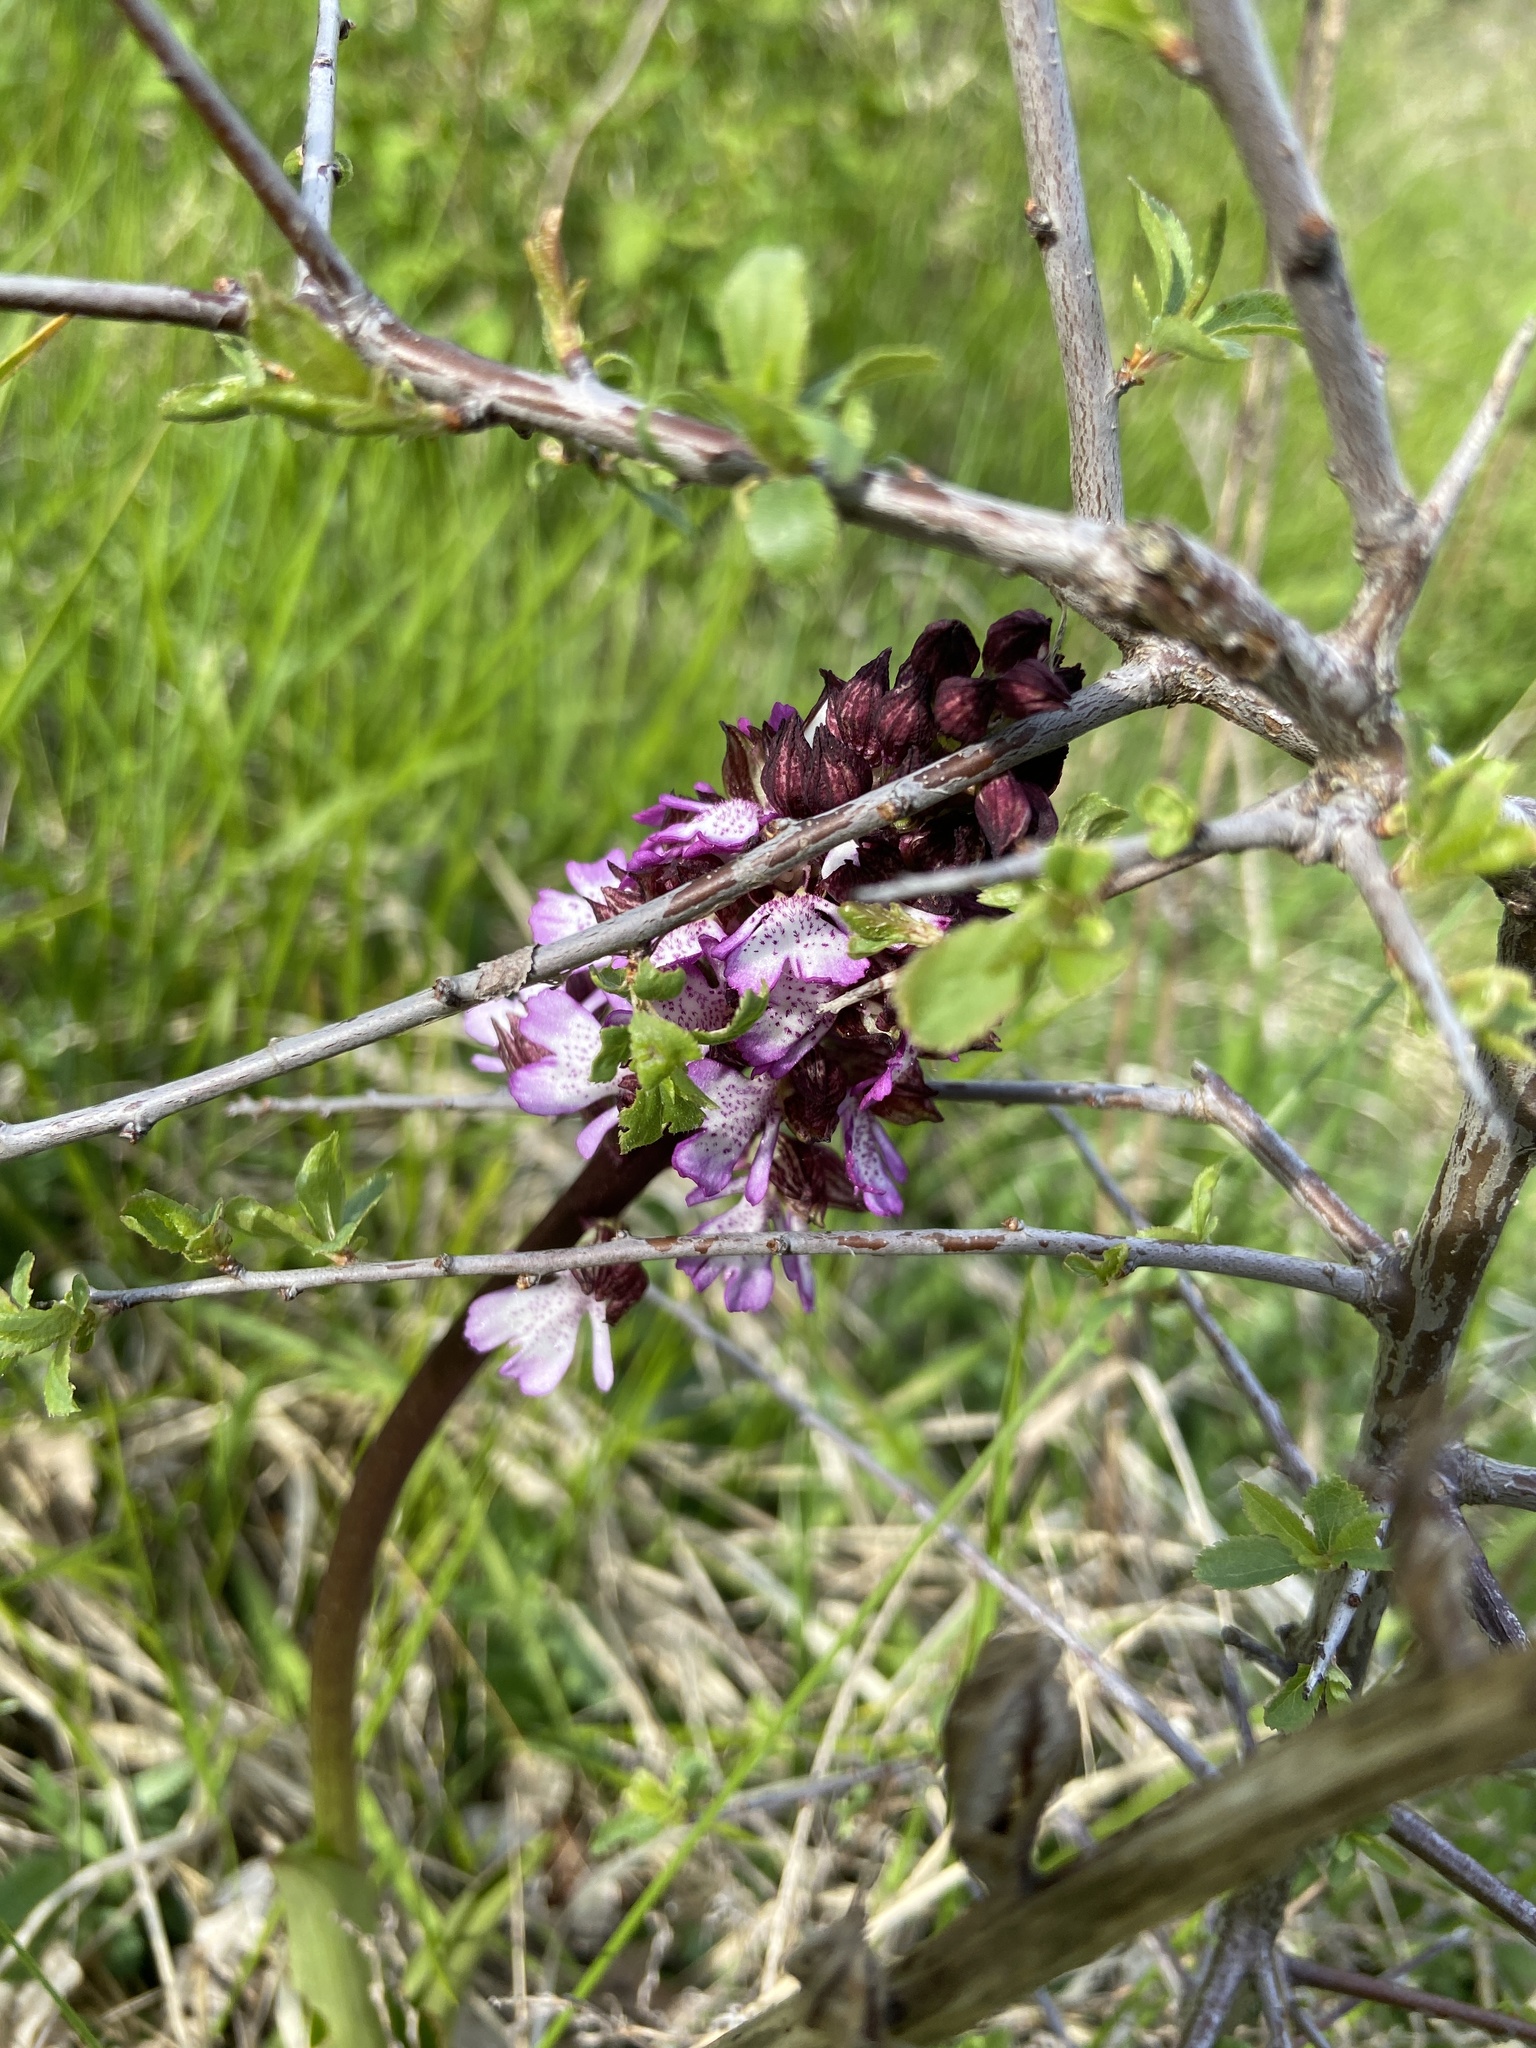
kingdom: Plantae
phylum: Tracheophyta
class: Liliopsida
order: Asparagales
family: Orchidaceae
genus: Orchis
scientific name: Orchis purpurea
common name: Lady orchid
